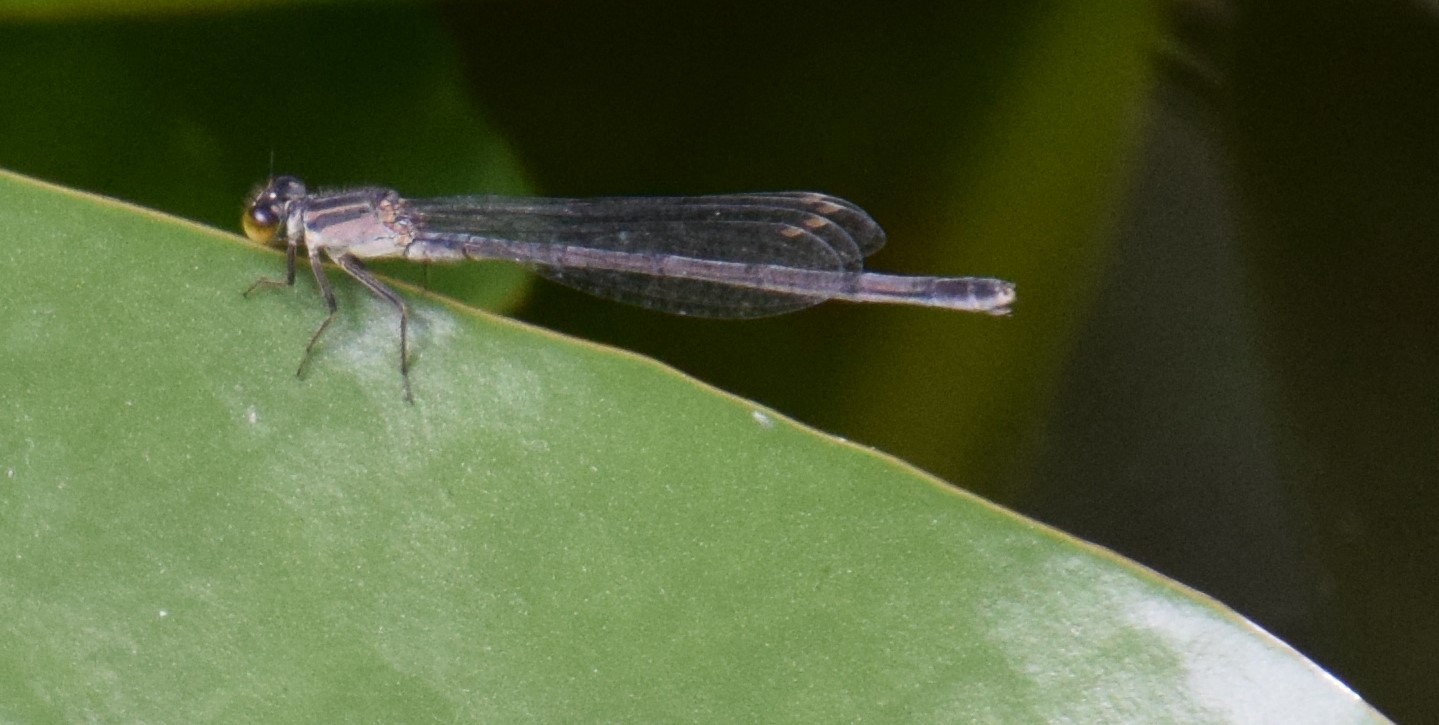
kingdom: Animalia
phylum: Arthropoda
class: Insecta
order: Odonata
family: Coenagrionidae
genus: Ischnura
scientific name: Ischnura heterosticta
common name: Common bluetail
